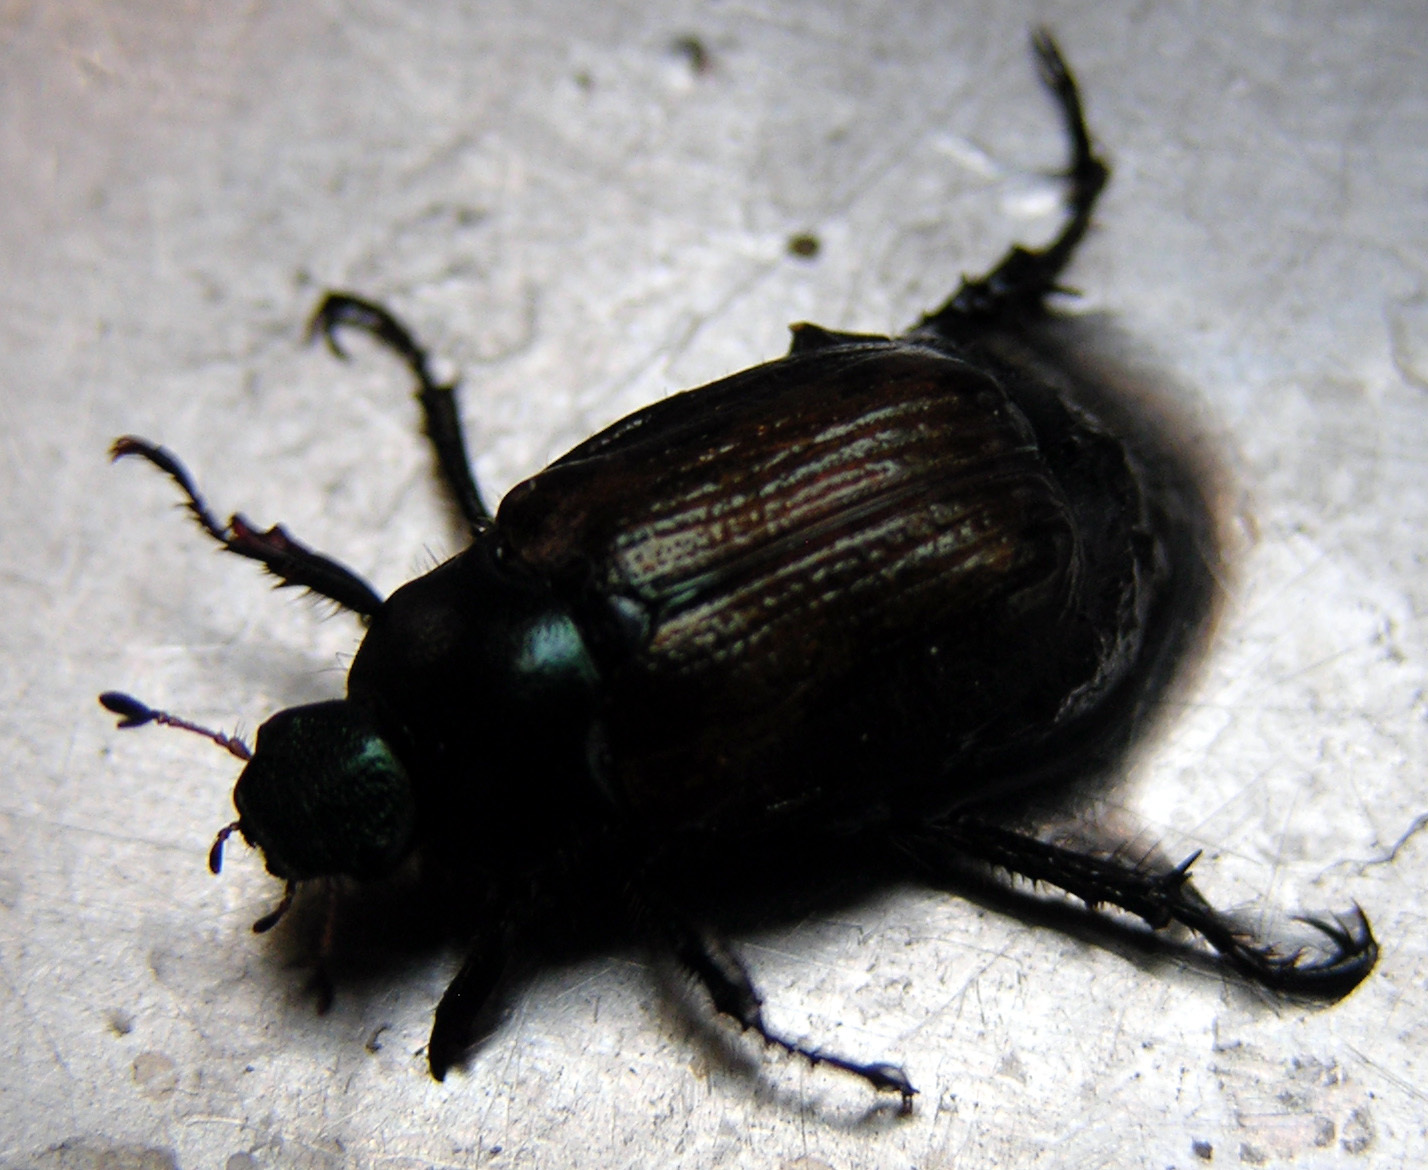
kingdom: Animalia
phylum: Arthropoda
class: Insecta
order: Coleoptera
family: Scarabaeidae
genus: Phyllopertha
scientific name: Phyllopertha horticola
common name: Garden chafer
